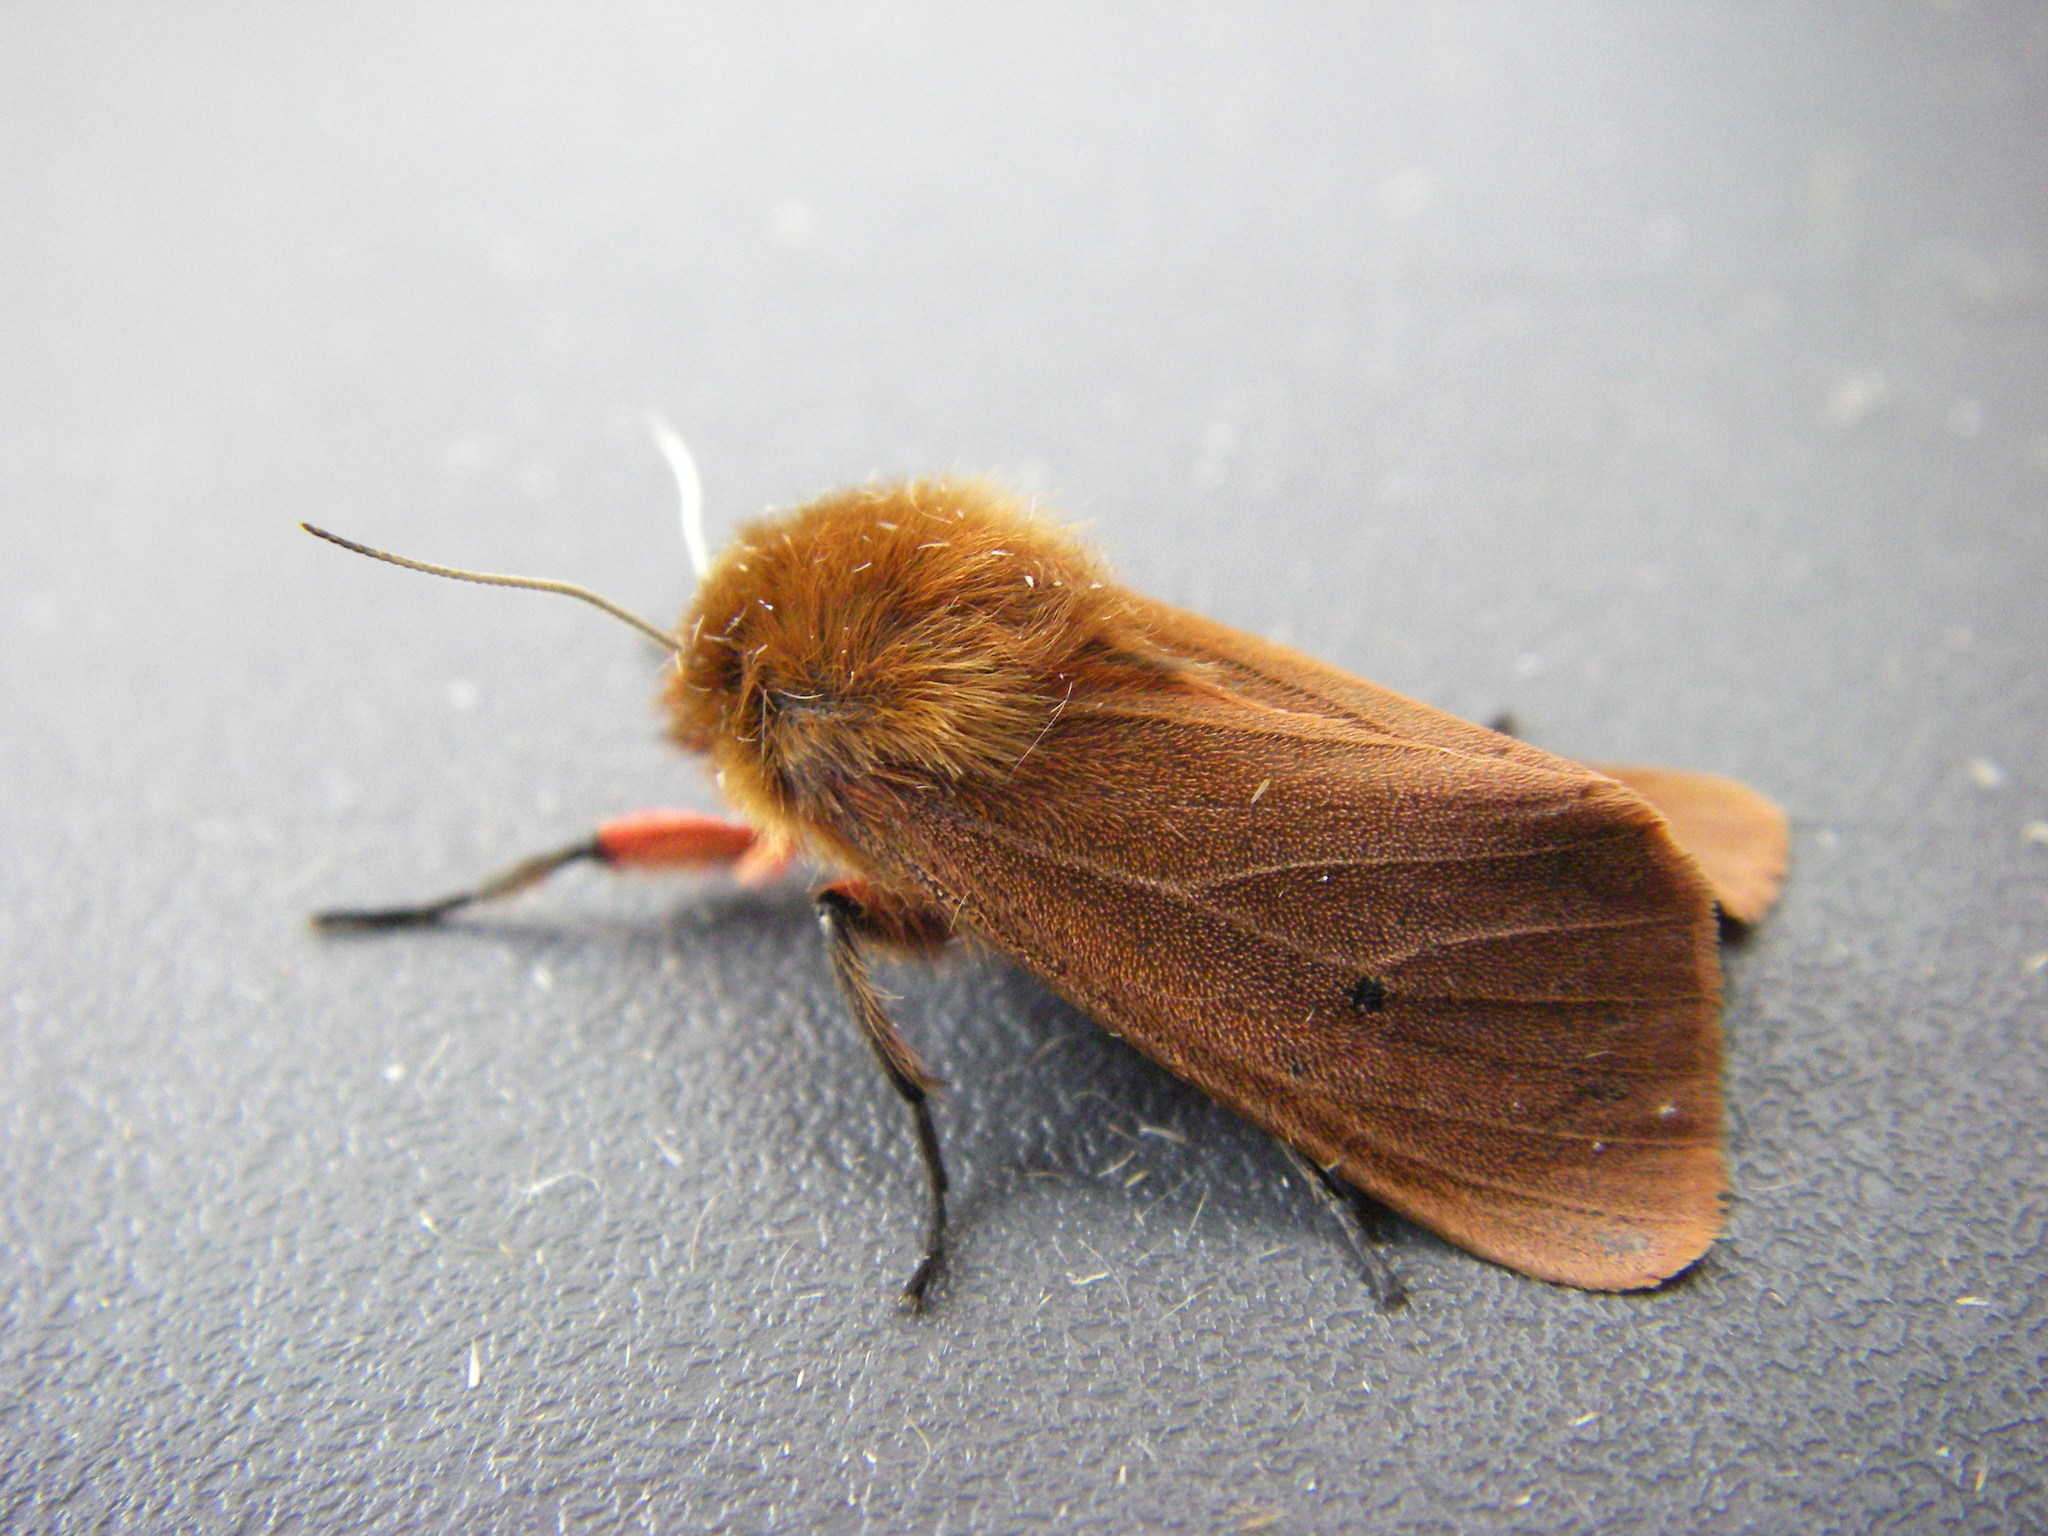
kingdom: Animalia
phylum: Arthropoda
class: Insecta
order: Lepidoptera
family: Erebidae
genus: Phragmatobia
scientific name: Phragmatobia fuliginosa
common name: Ruby tiger
